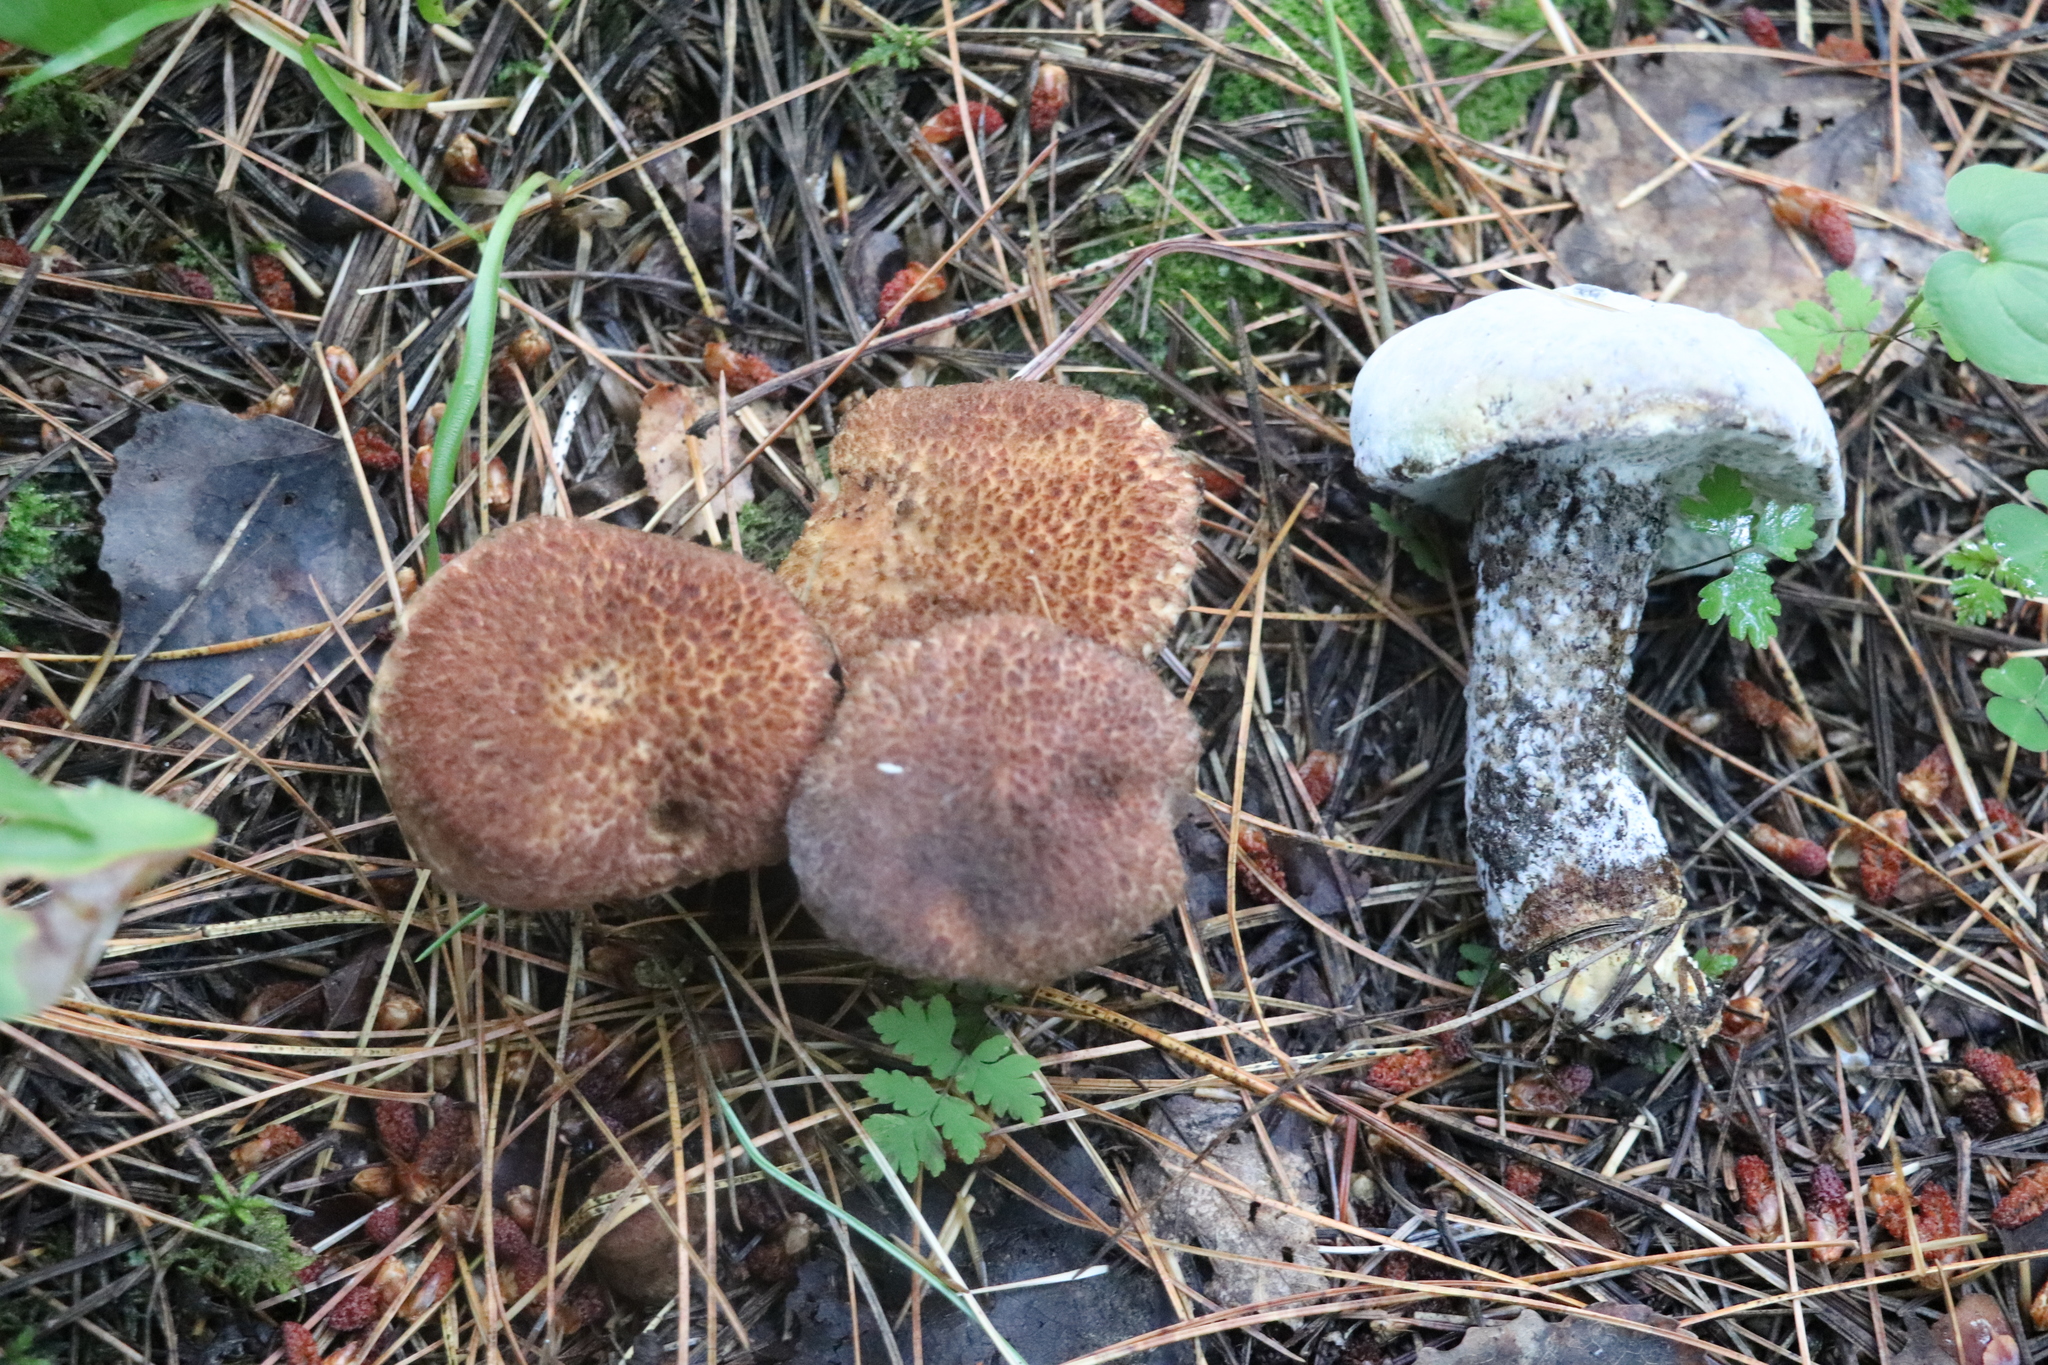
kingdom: Fungi
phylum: Basidiomycota
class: Agaricomycetes
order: Boletales
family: Suillaceae
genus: Suillus
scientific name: Suillus spraguei
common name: Painted suillus
